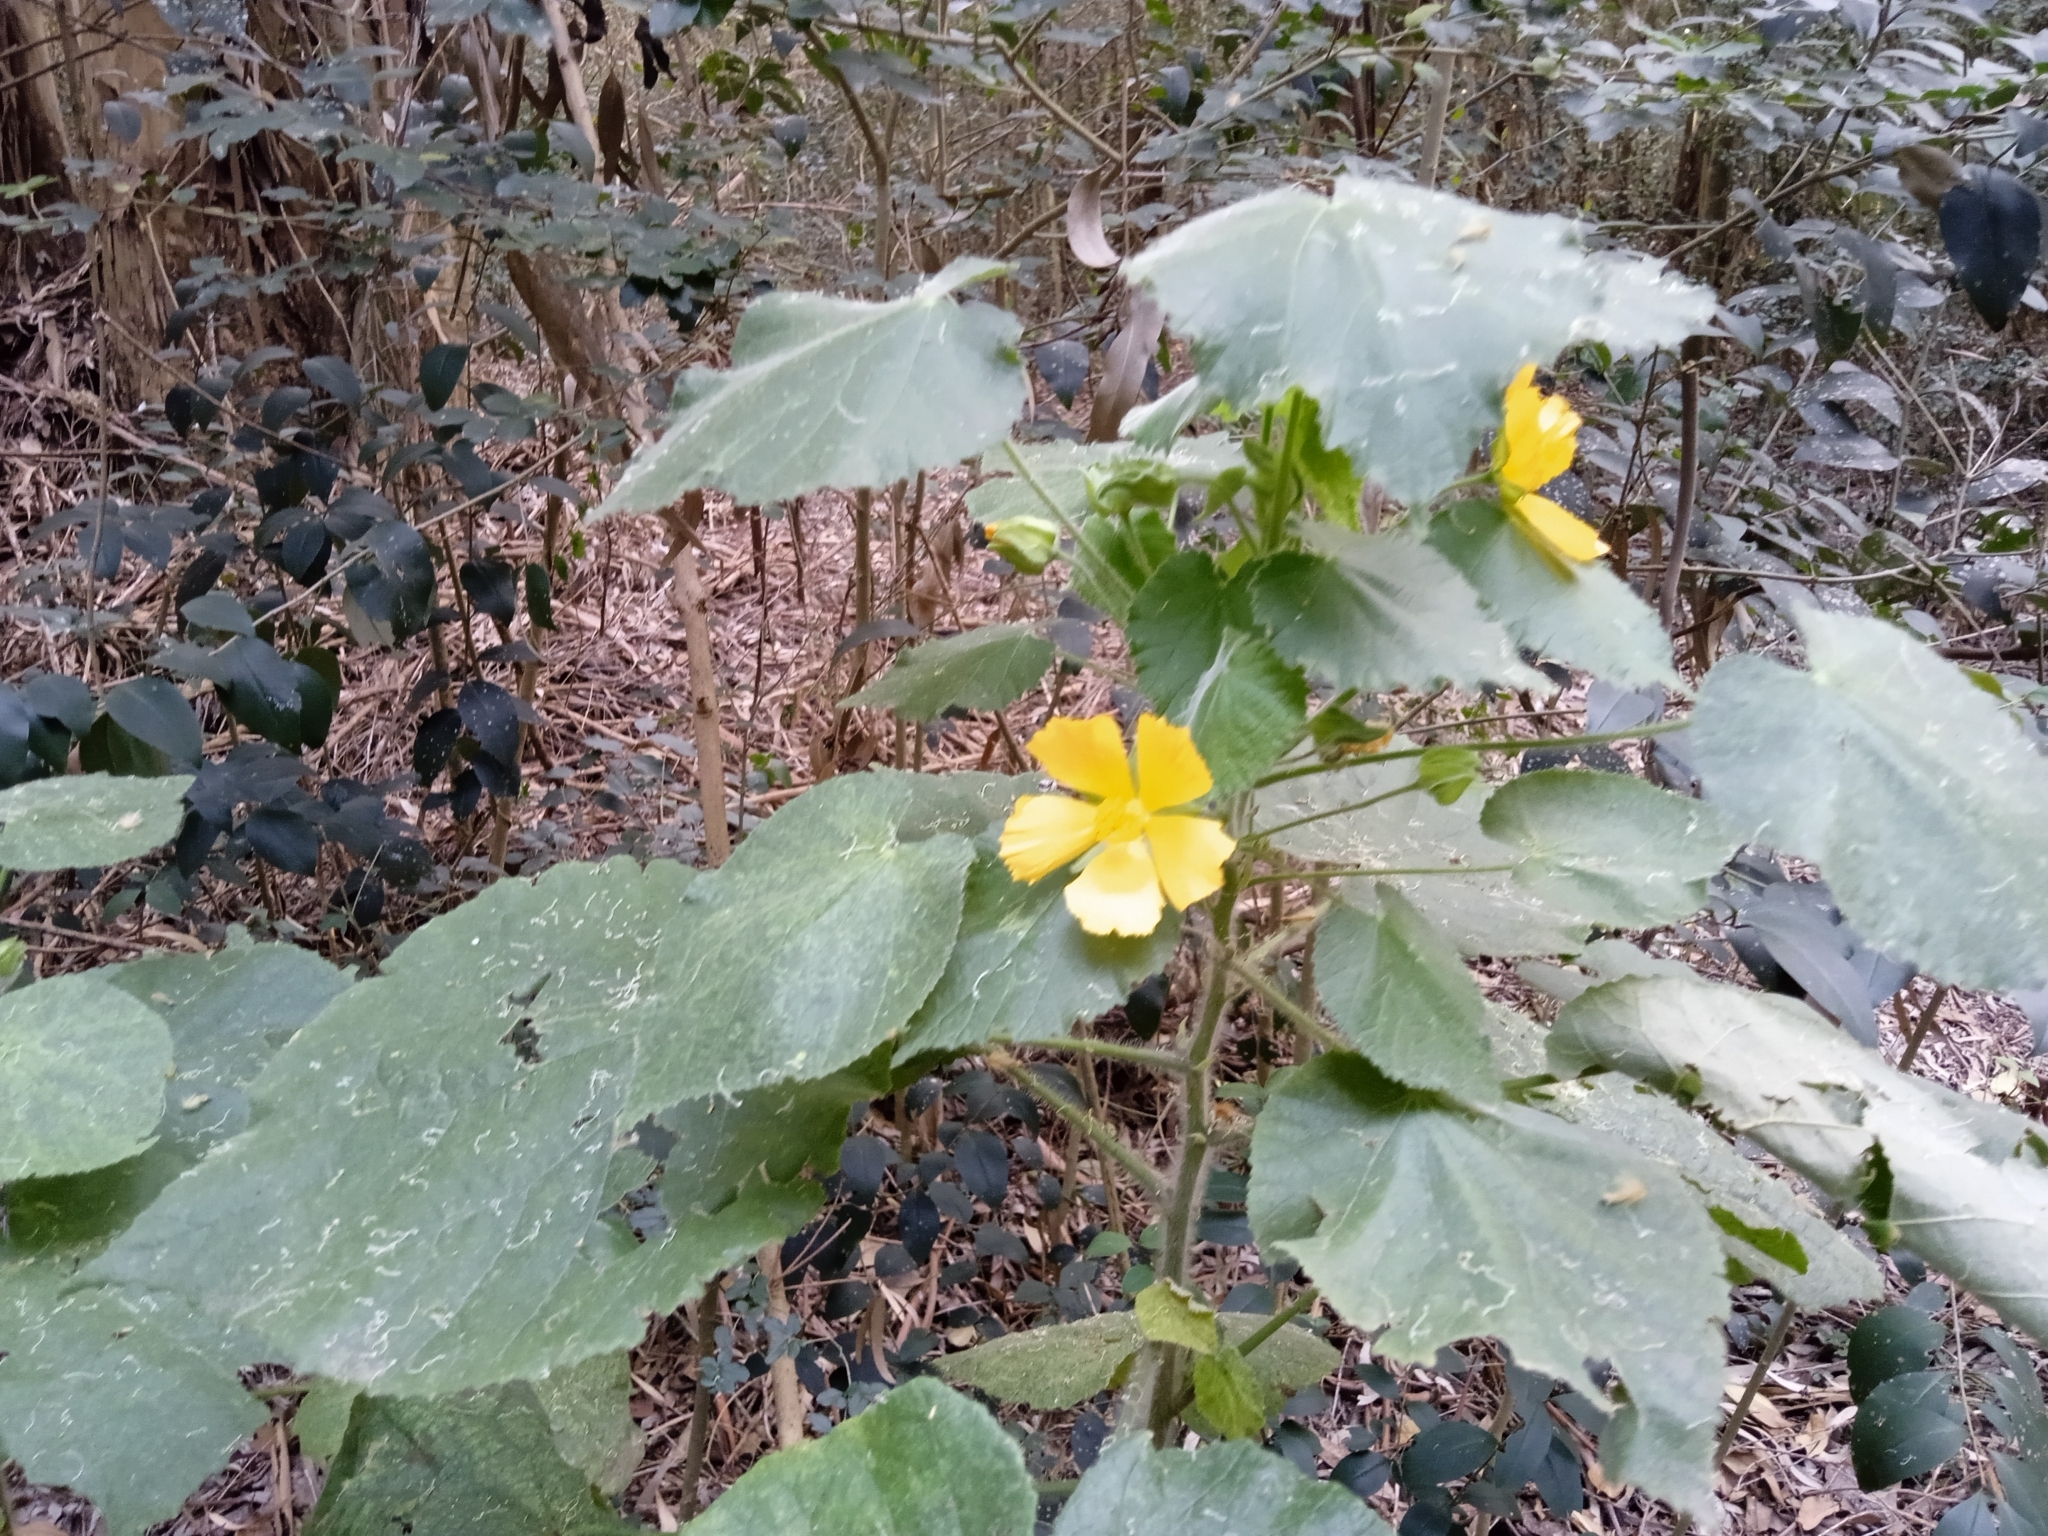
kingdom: Plantae
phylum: Tracheophyta
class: Magnoliopsida
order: Malvales
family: Malvaceae
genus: Abutilon
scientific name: Abutilon grandifolium
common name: Hairy abutilon
